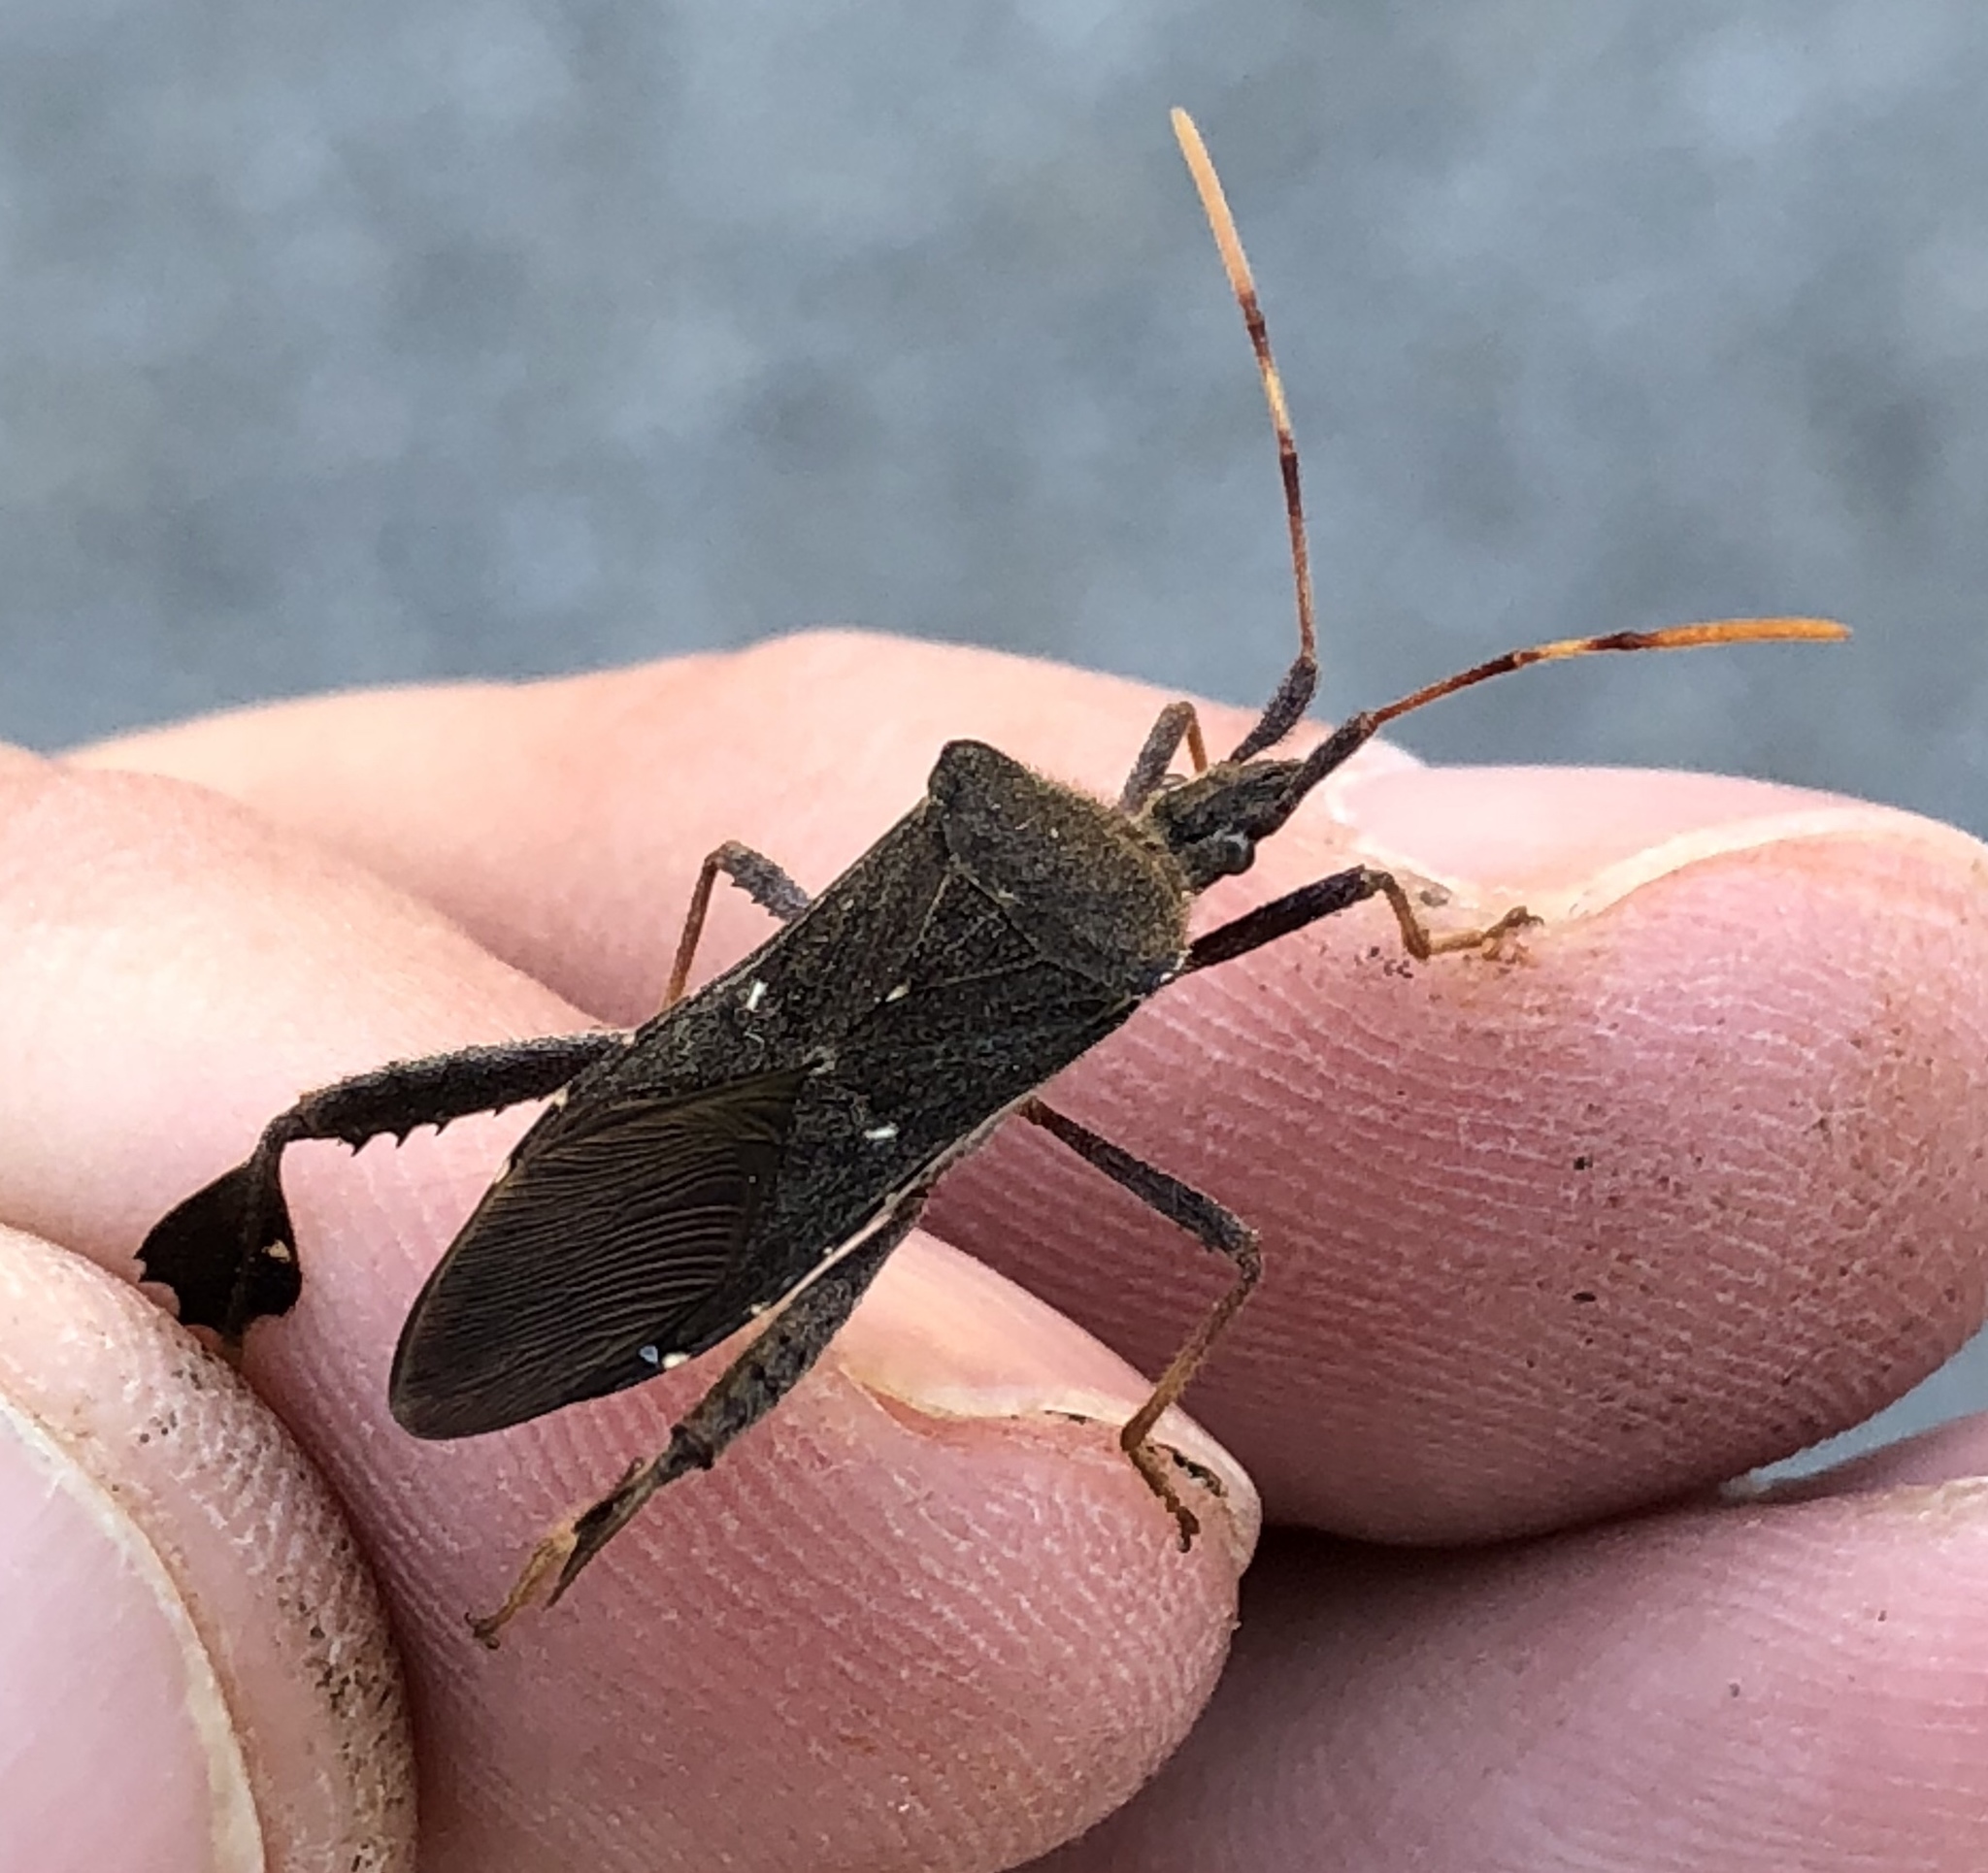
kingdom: Animalia
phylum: Arthropoda
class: Insecta
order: Hemiptera
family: Coreidae
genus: Leptoglossus
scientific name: Leptoglossus oppositus
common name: Northern leaf-footed bug
